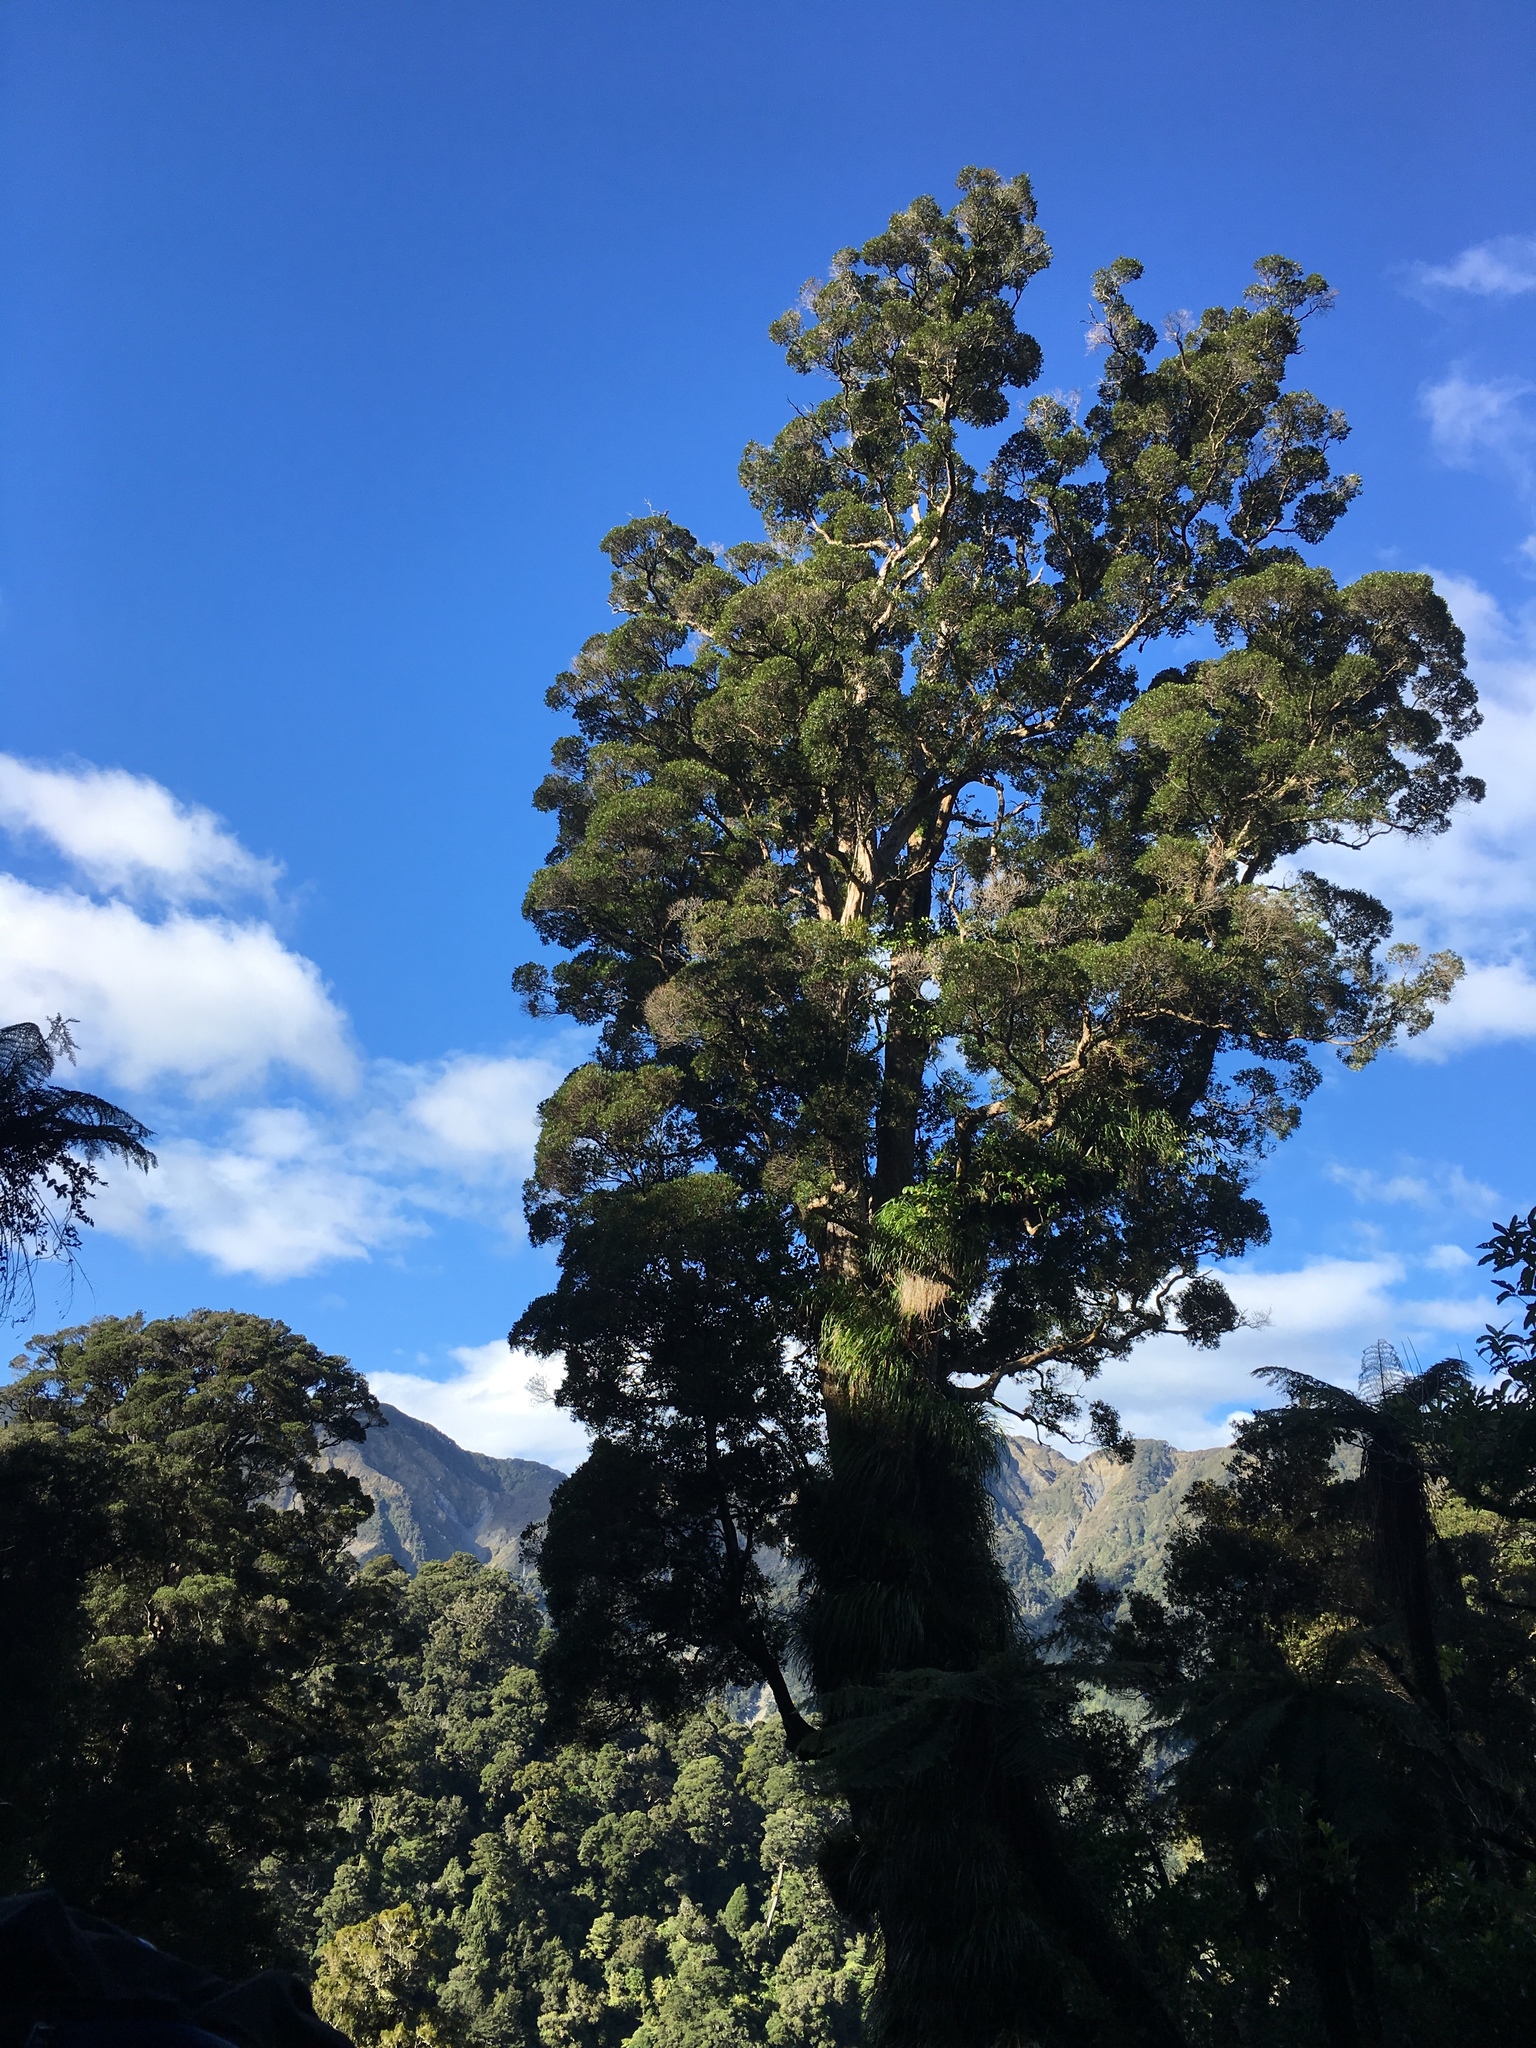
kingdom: Plantae
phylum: Tracheophyta
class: Magnoliopsida
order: Myrtales
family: Myrtaceae
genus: Metrosideros
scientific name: Metrosideros robusta
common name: Northern rata
